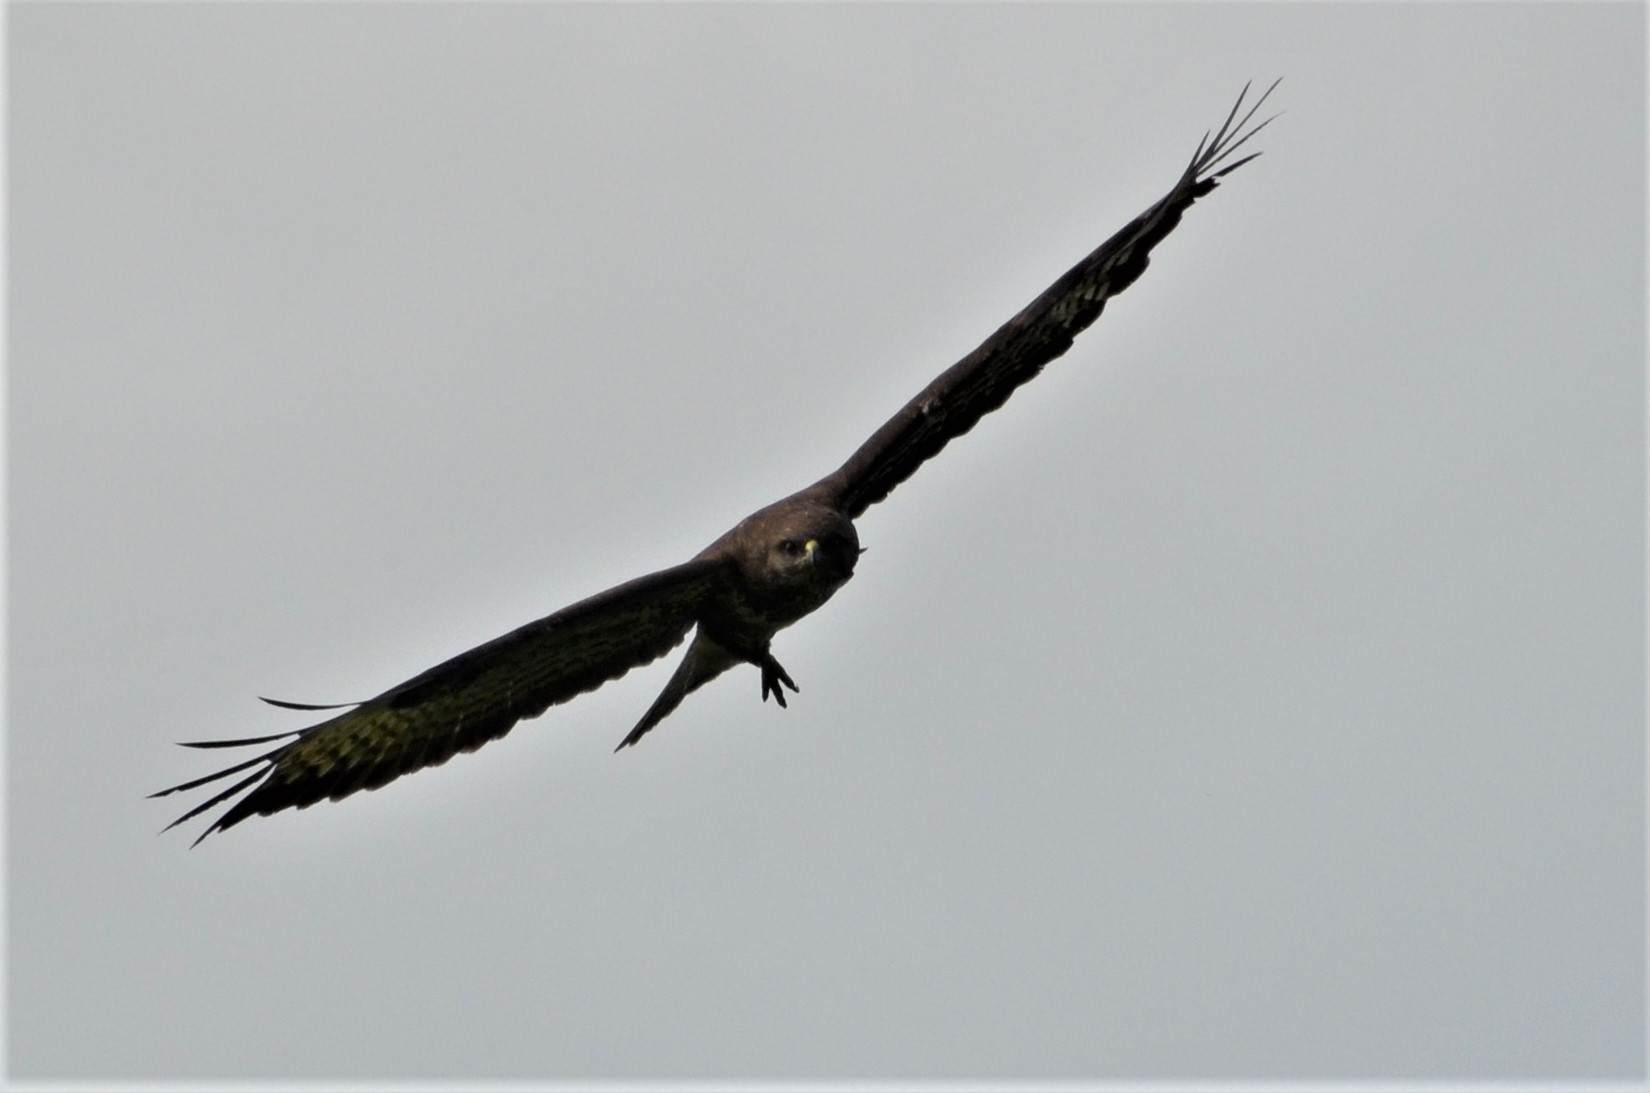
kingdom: Animalia
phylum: Chordata
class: Aves
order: Accipitriformes
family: Accipitridae
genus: Buteo
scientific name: Buteo buteo
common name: Common buzzard
